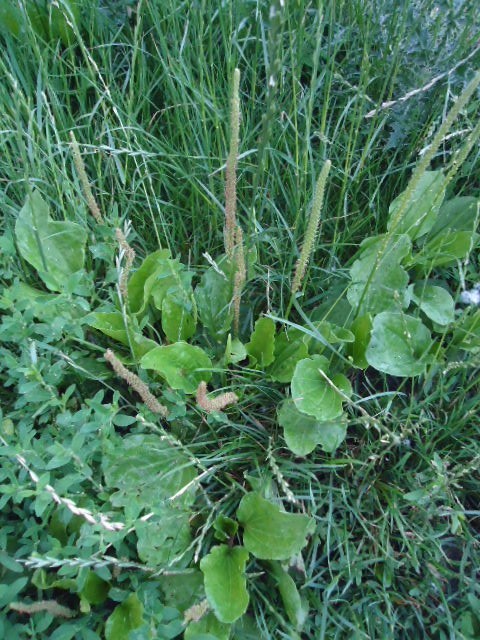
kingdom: Plantae
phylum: Tracheophyta
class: Magnoliopsida
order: Lamiales
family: Plantaginaceae
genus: Plantago
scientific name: Plantago major
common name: Common plantain
